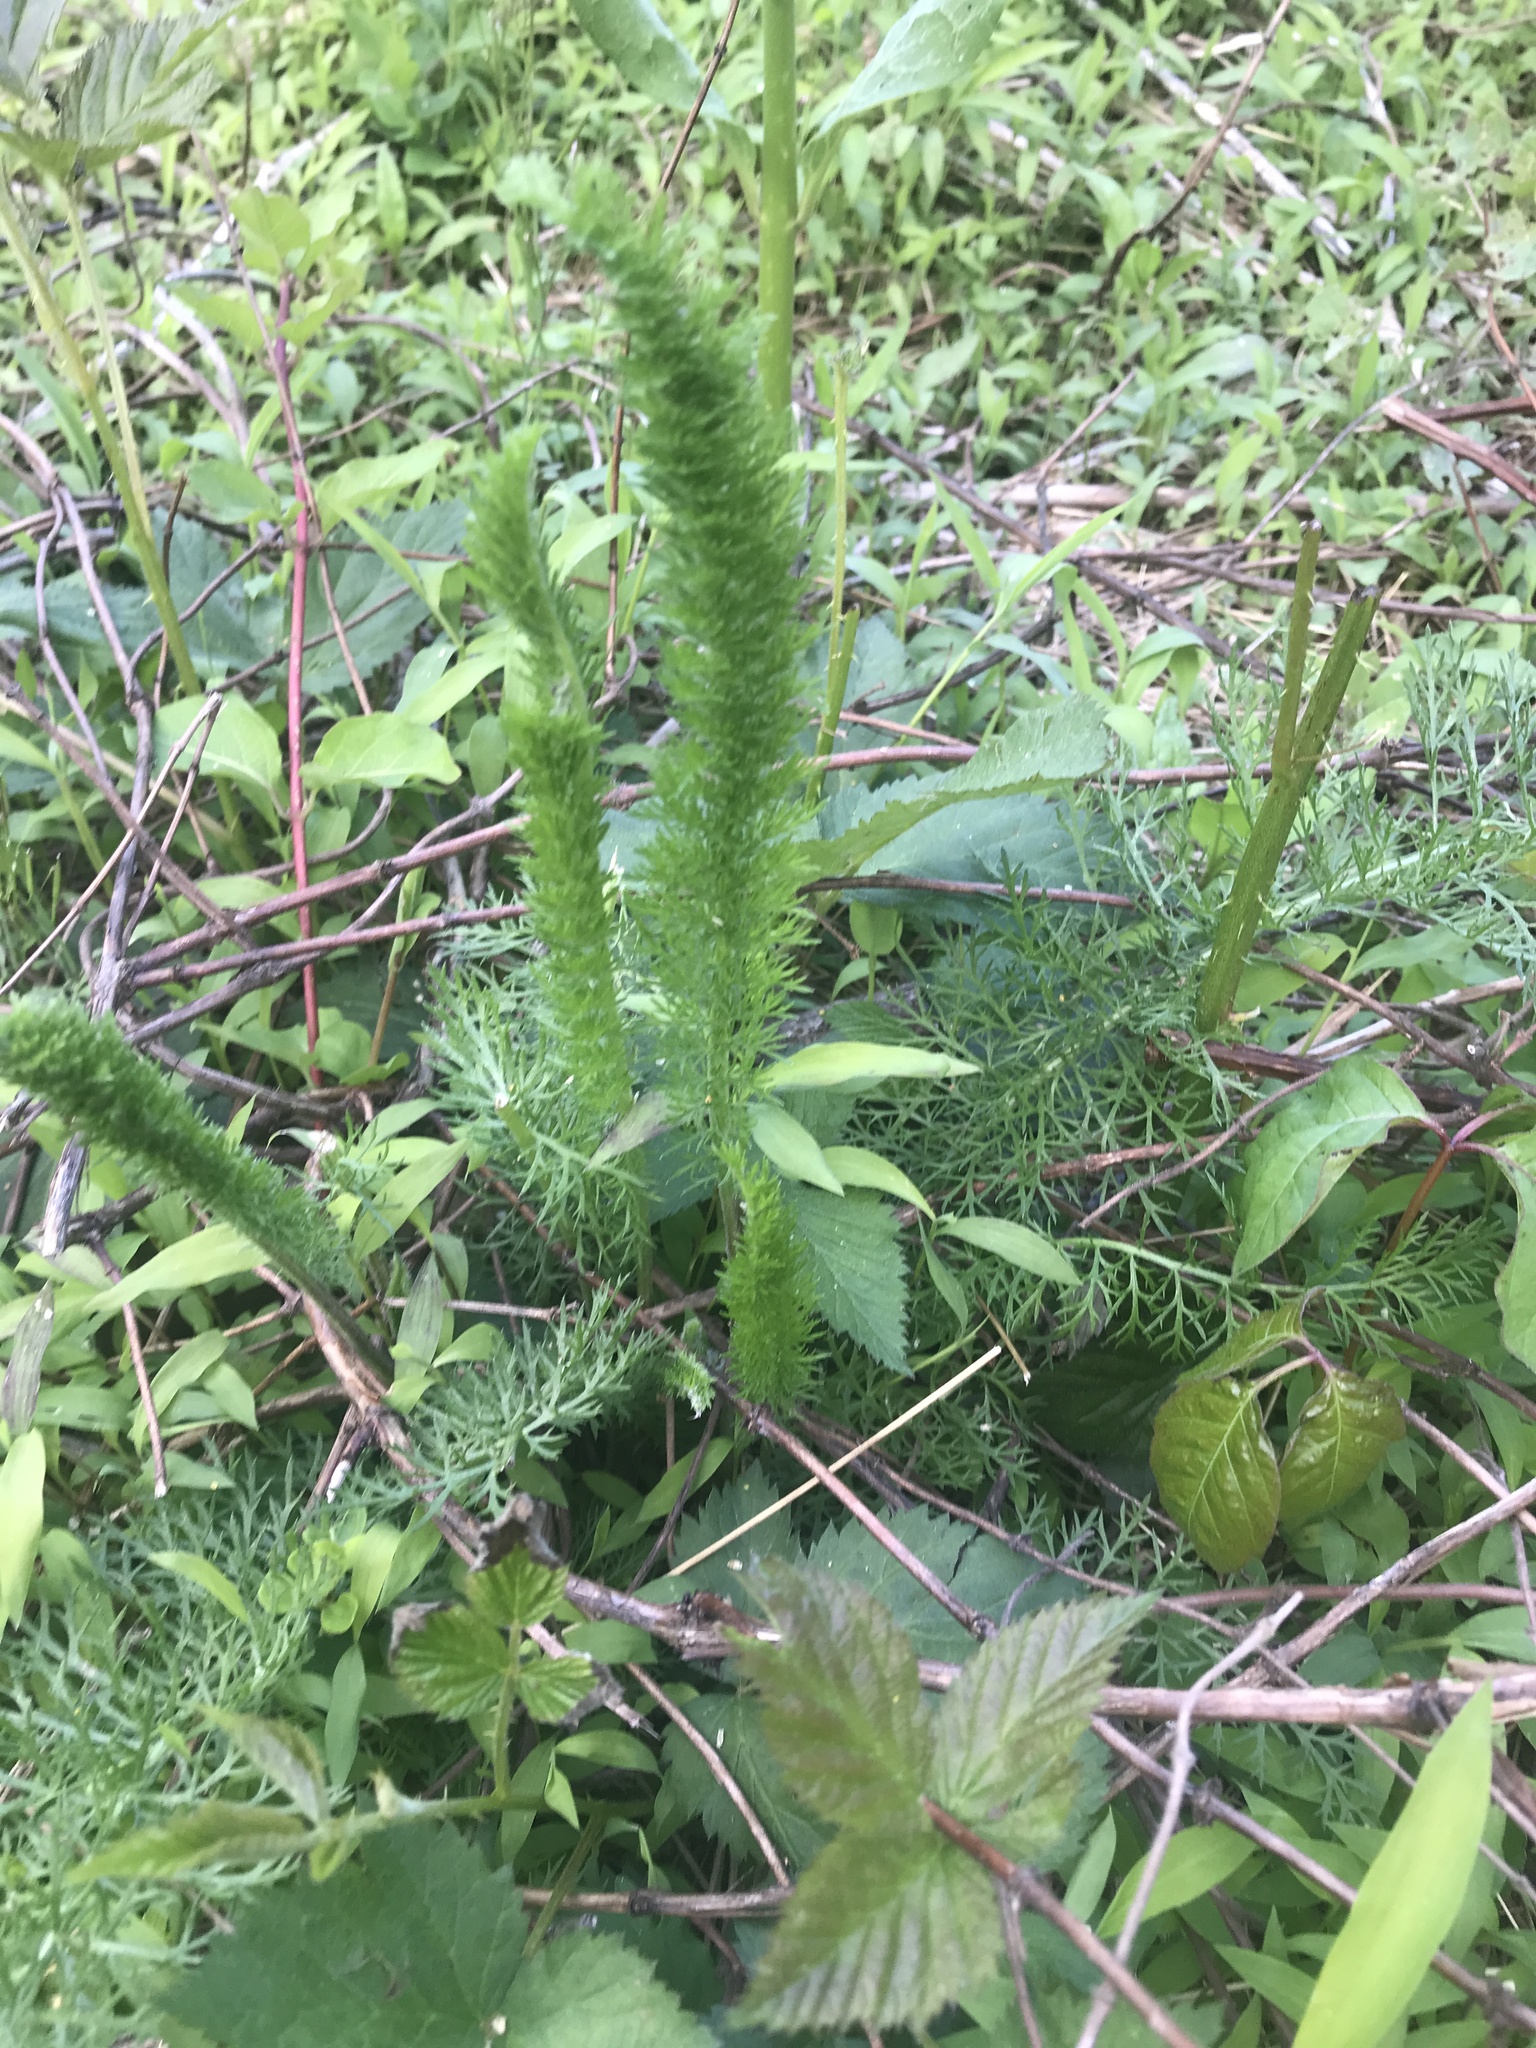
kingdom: Plantae
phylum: Tracheophyta
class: Magnoliopsida
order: Asterales
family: Asteraceae
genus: Achillea
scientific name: Achillea millefolium
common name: Yarrow
